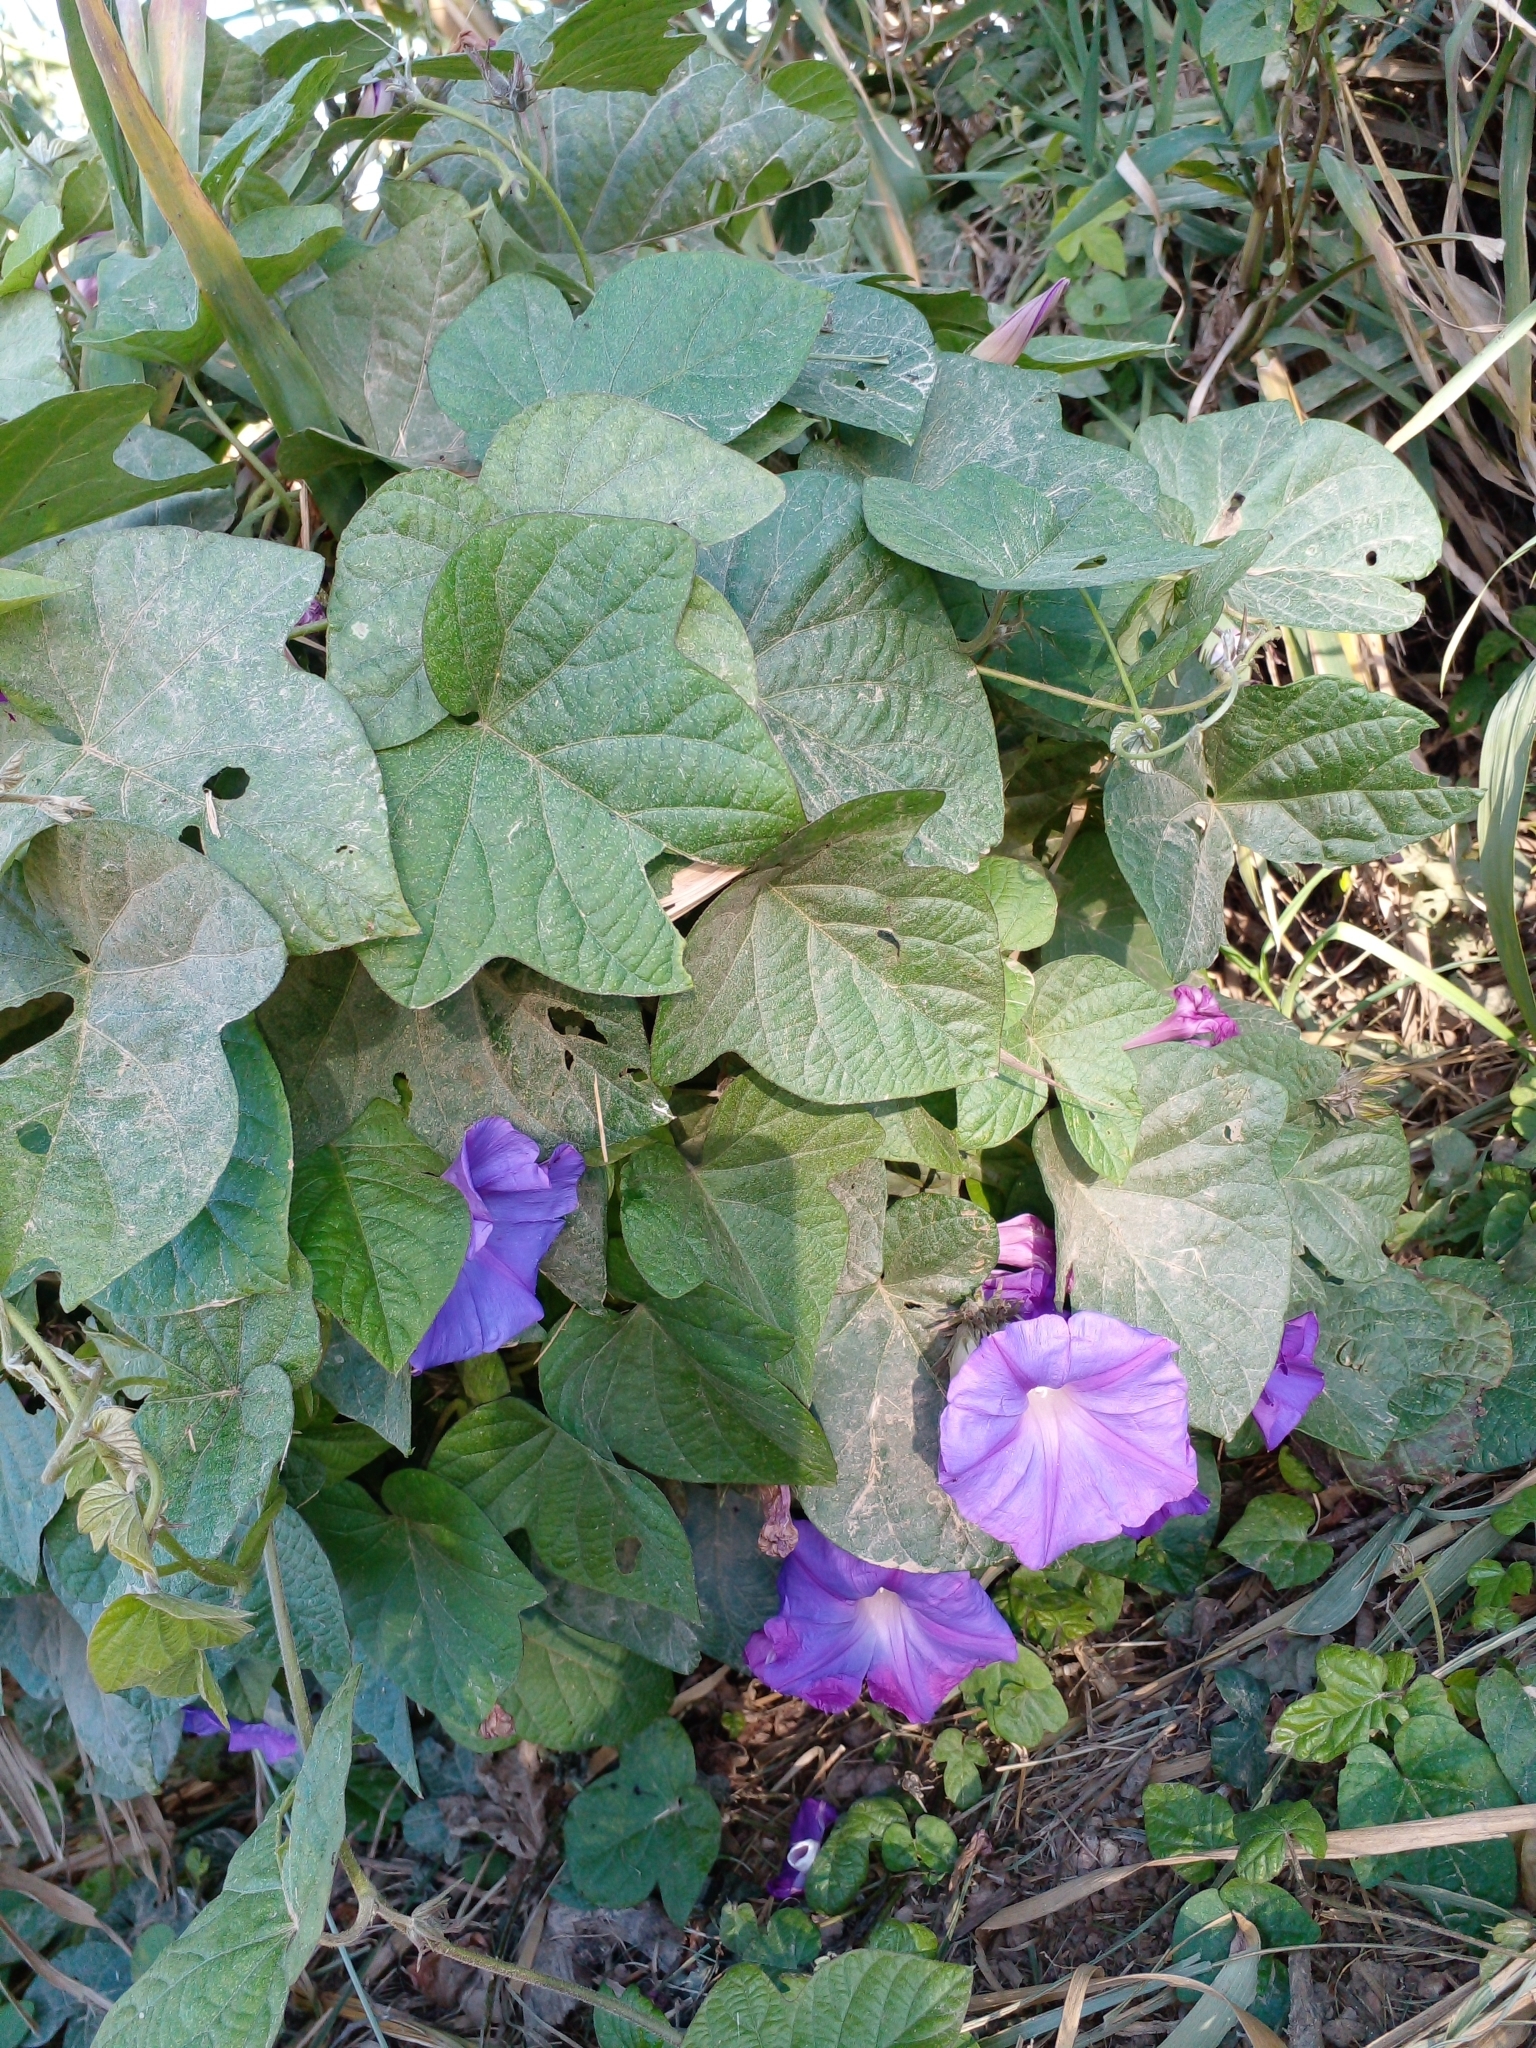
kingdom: Plantae
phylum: Tracheophyta
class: Magnoliopsida
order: Solanales
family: Convolvulaceae
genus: Ipomoea
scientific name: Ipomoea indica
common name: Blue dawnflower
